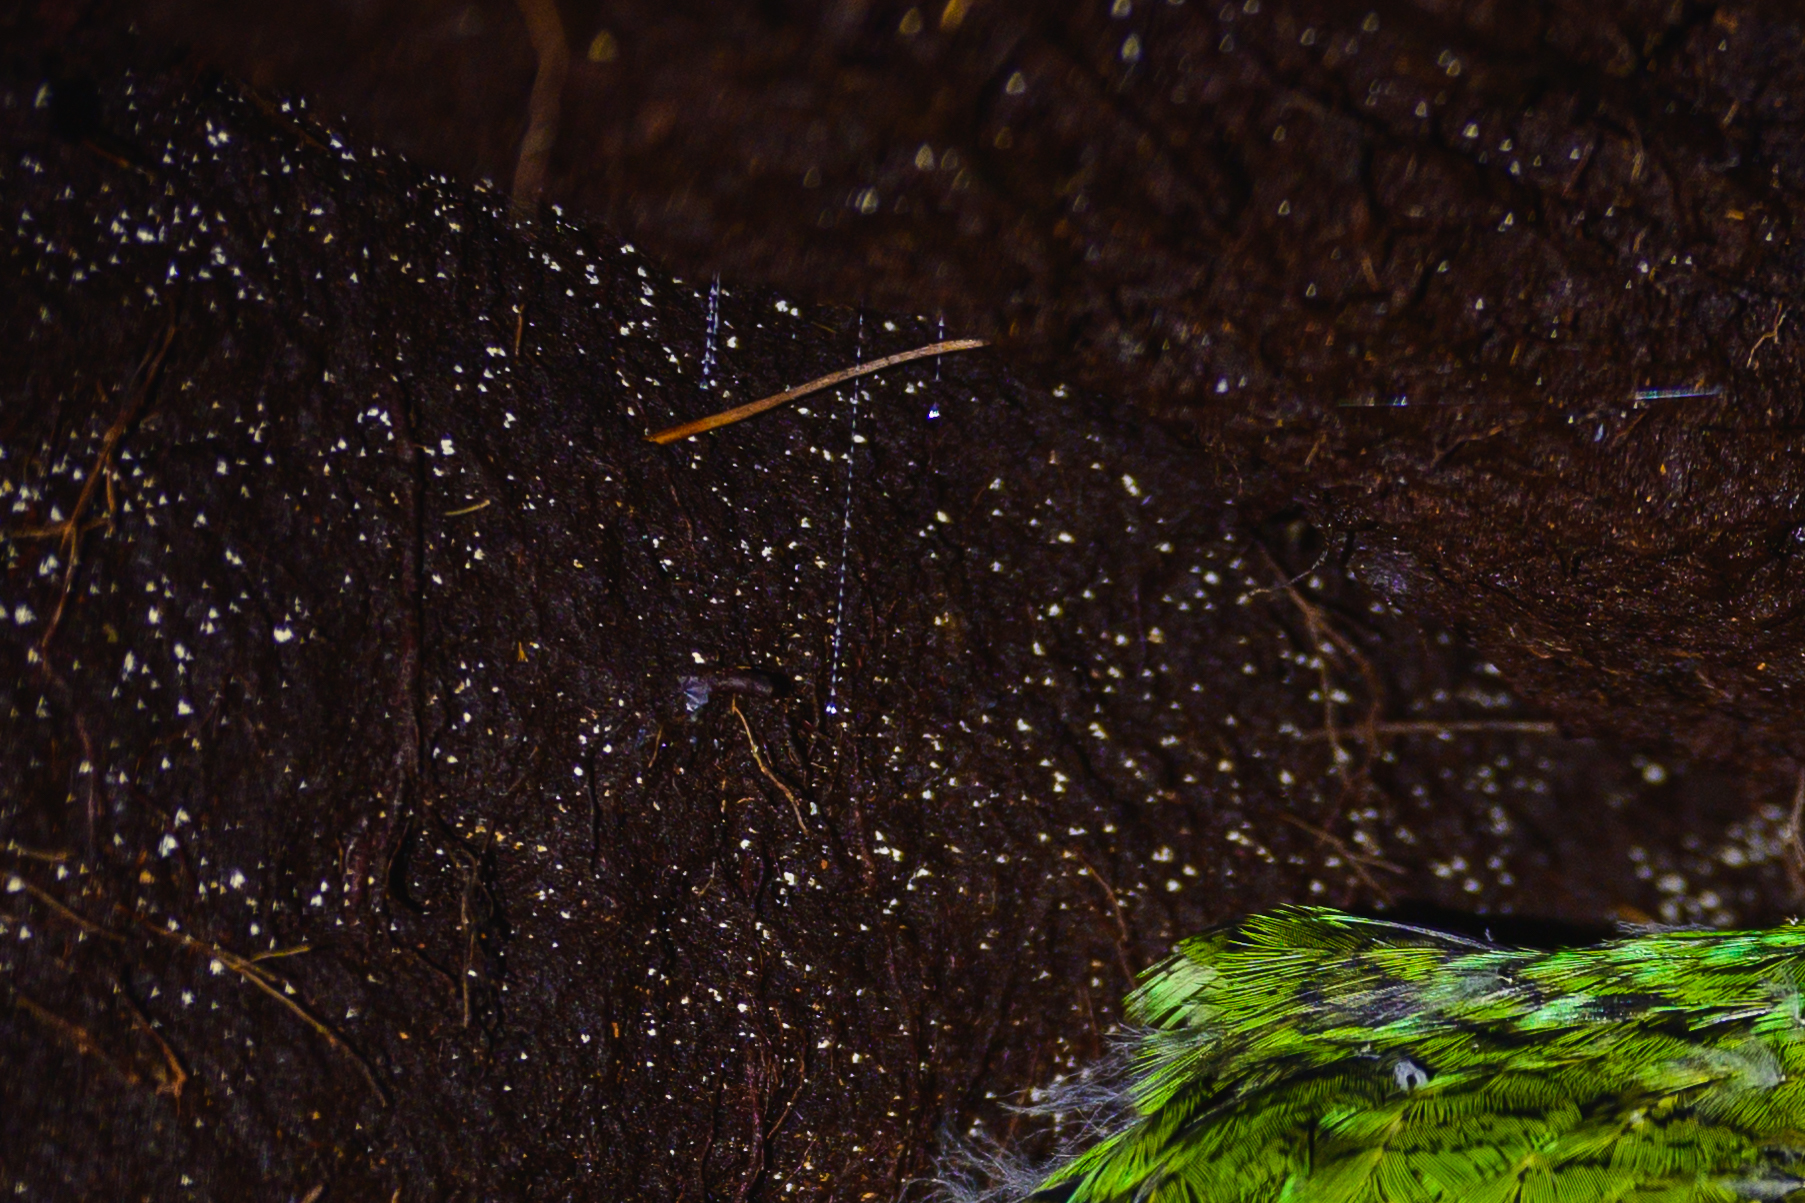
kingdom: Animalia
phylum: Arthropoda
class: Insecta
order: Diptera
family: Keroplatidae
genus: Arachnocampa
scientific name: Arachnocampa luminosa
